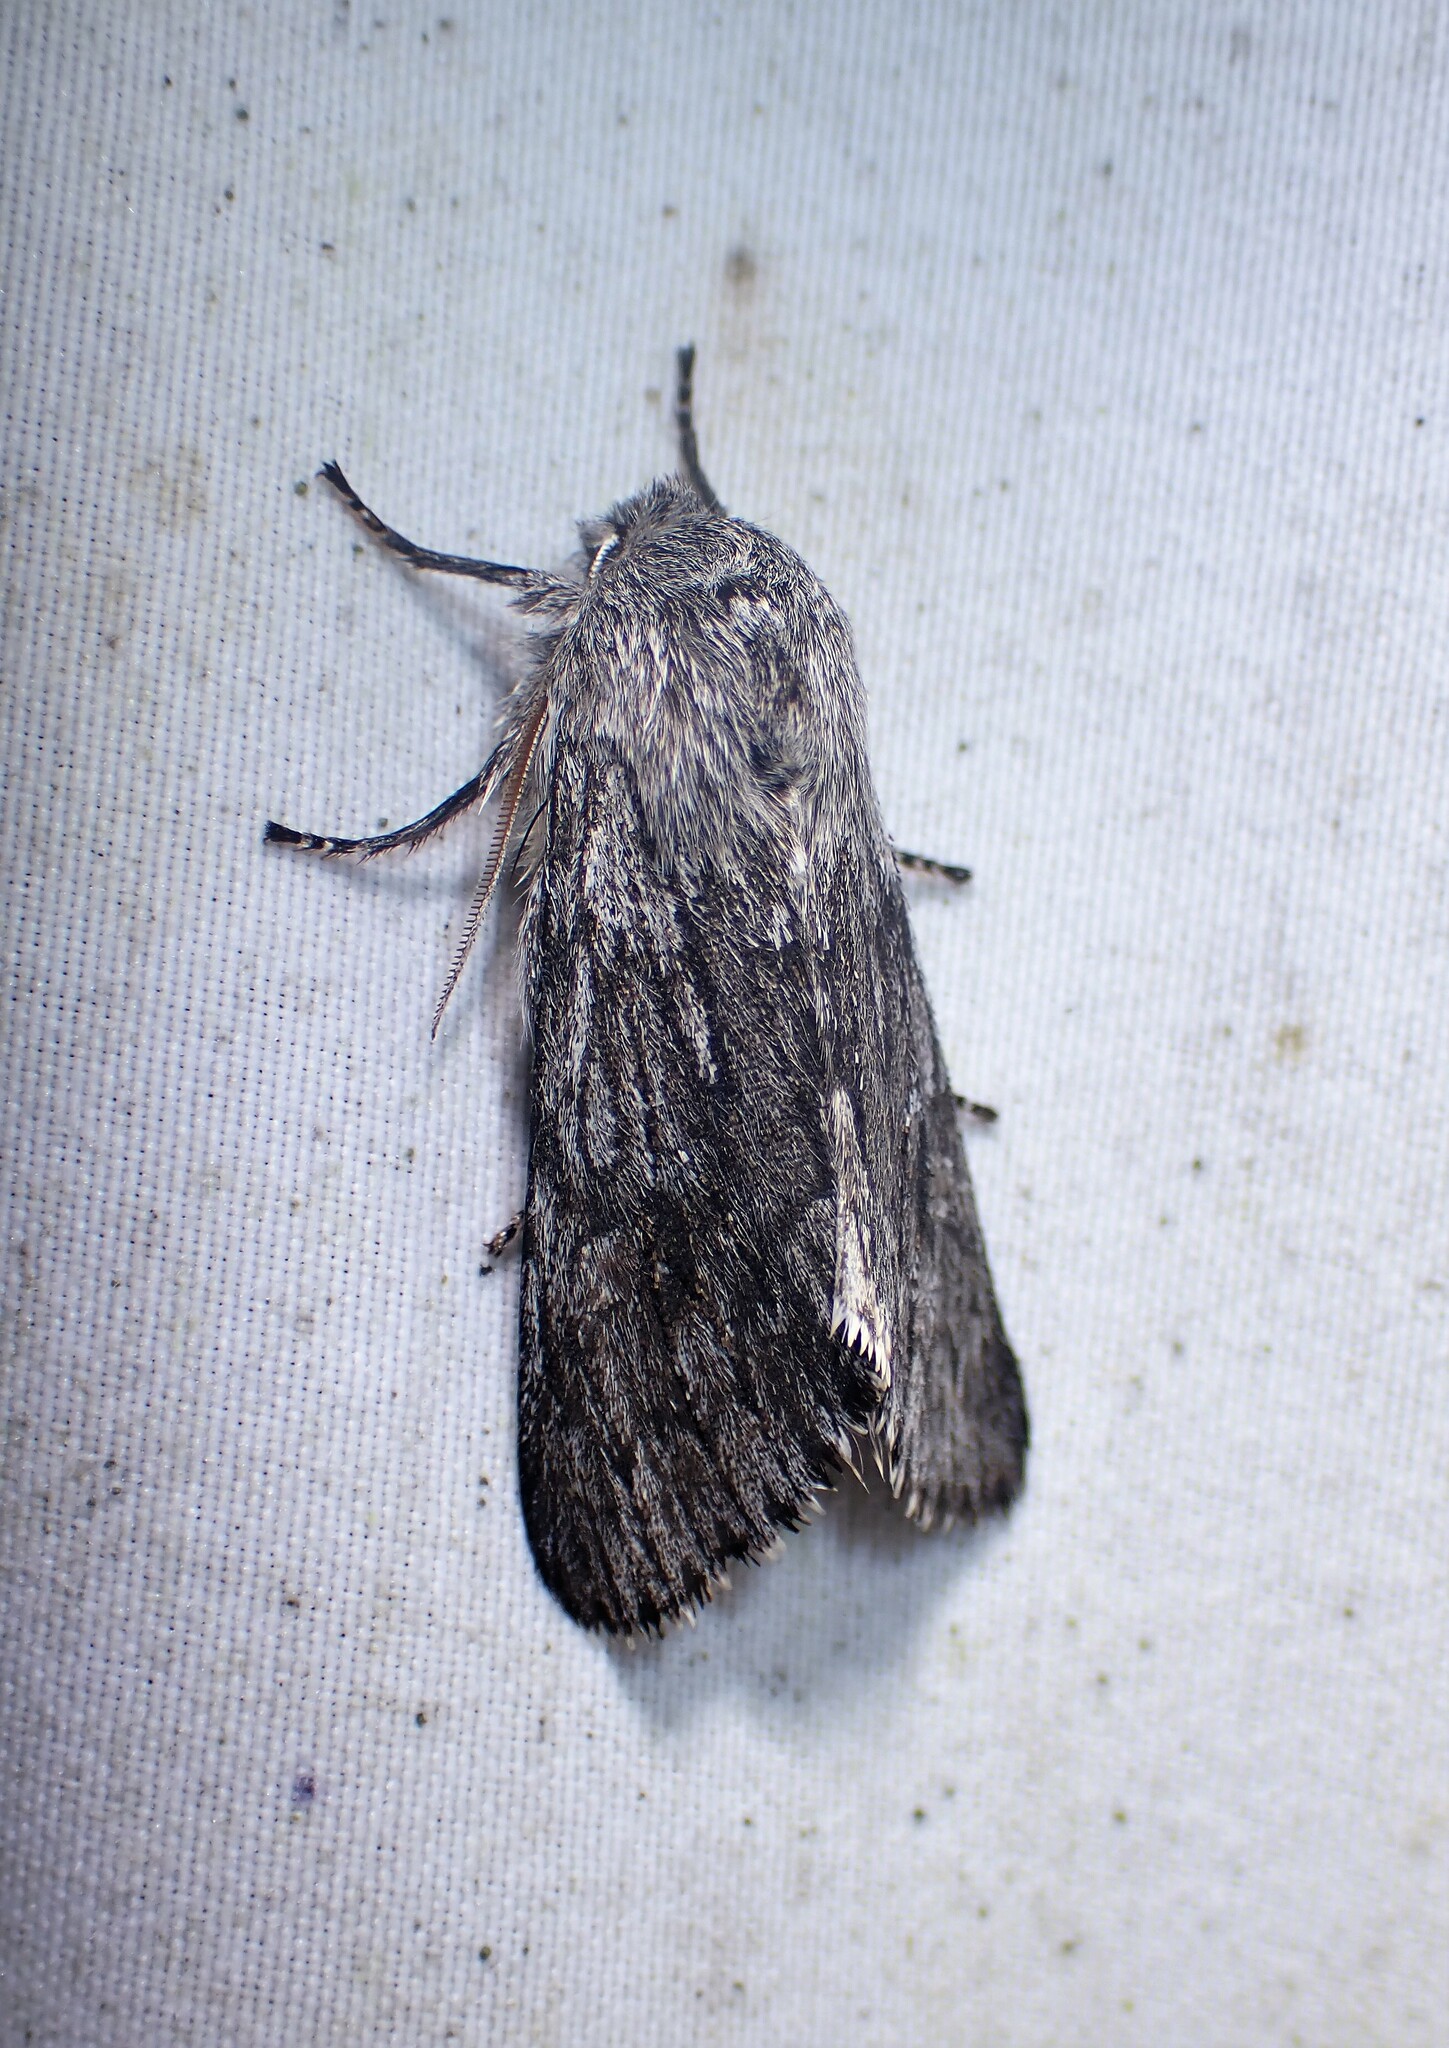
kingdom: Animalia
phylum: Arthropoda
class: Insecta
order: Lepidoptera
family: Noctuidae
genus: Brachionycha
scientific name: Brachionycha borealis
